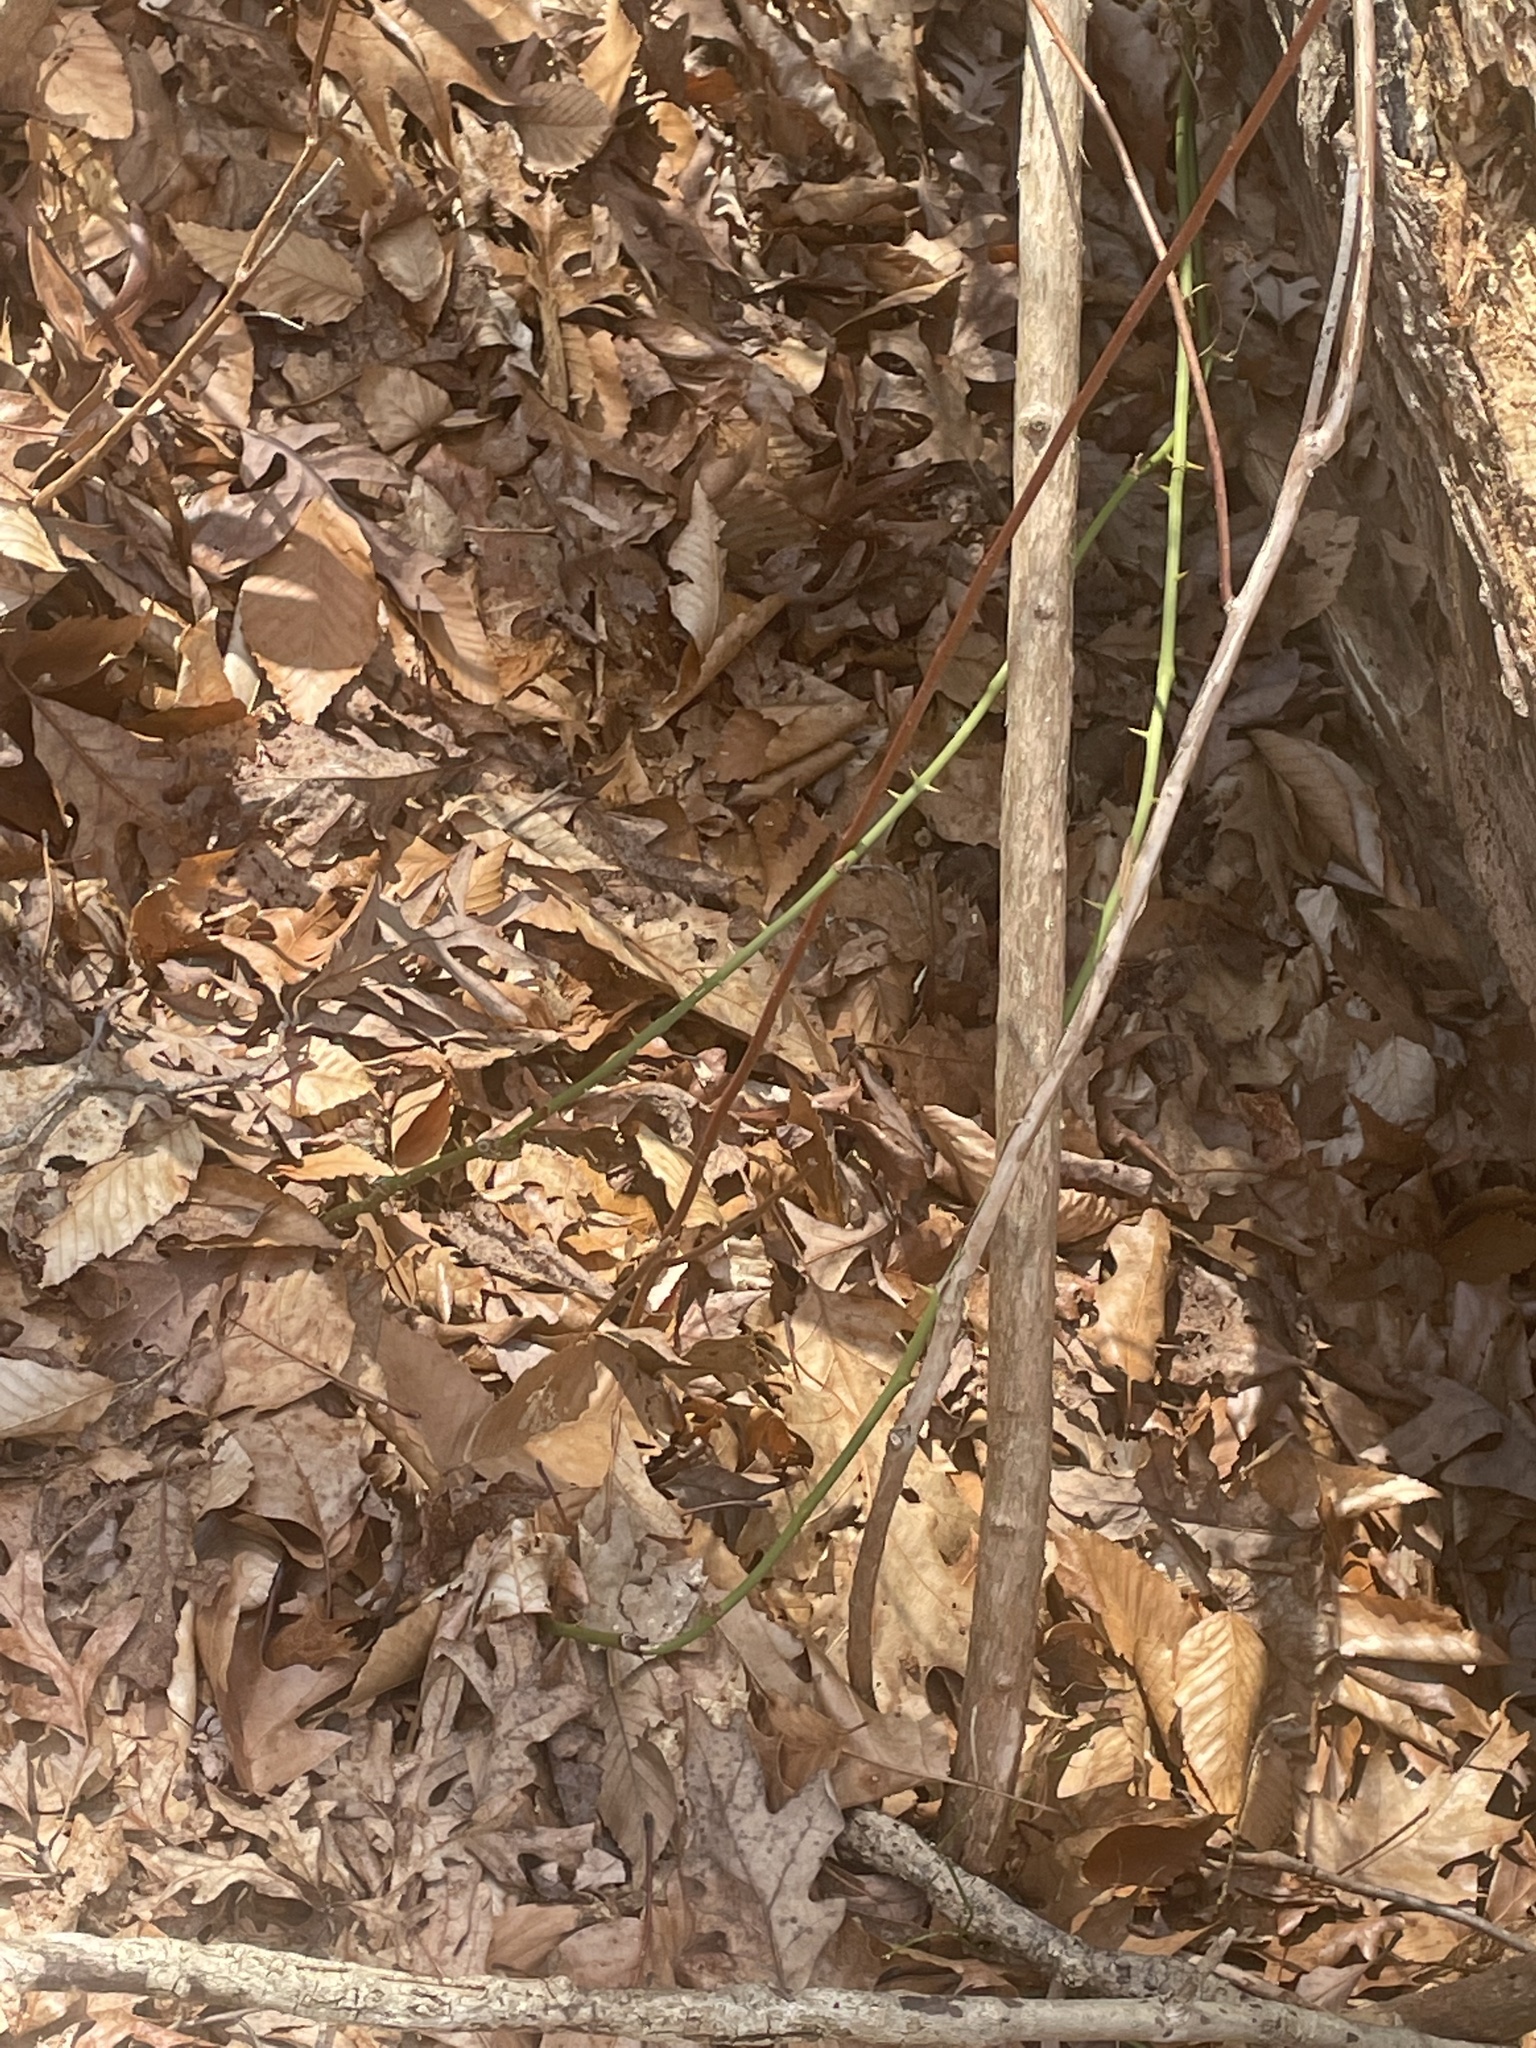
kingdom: Plantae
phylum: Tracheophyta
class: Liliopsida
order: Liliales
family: Smilacaceae
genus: Smilax
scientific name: Smilax rotundifolia
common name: Bullbriar
